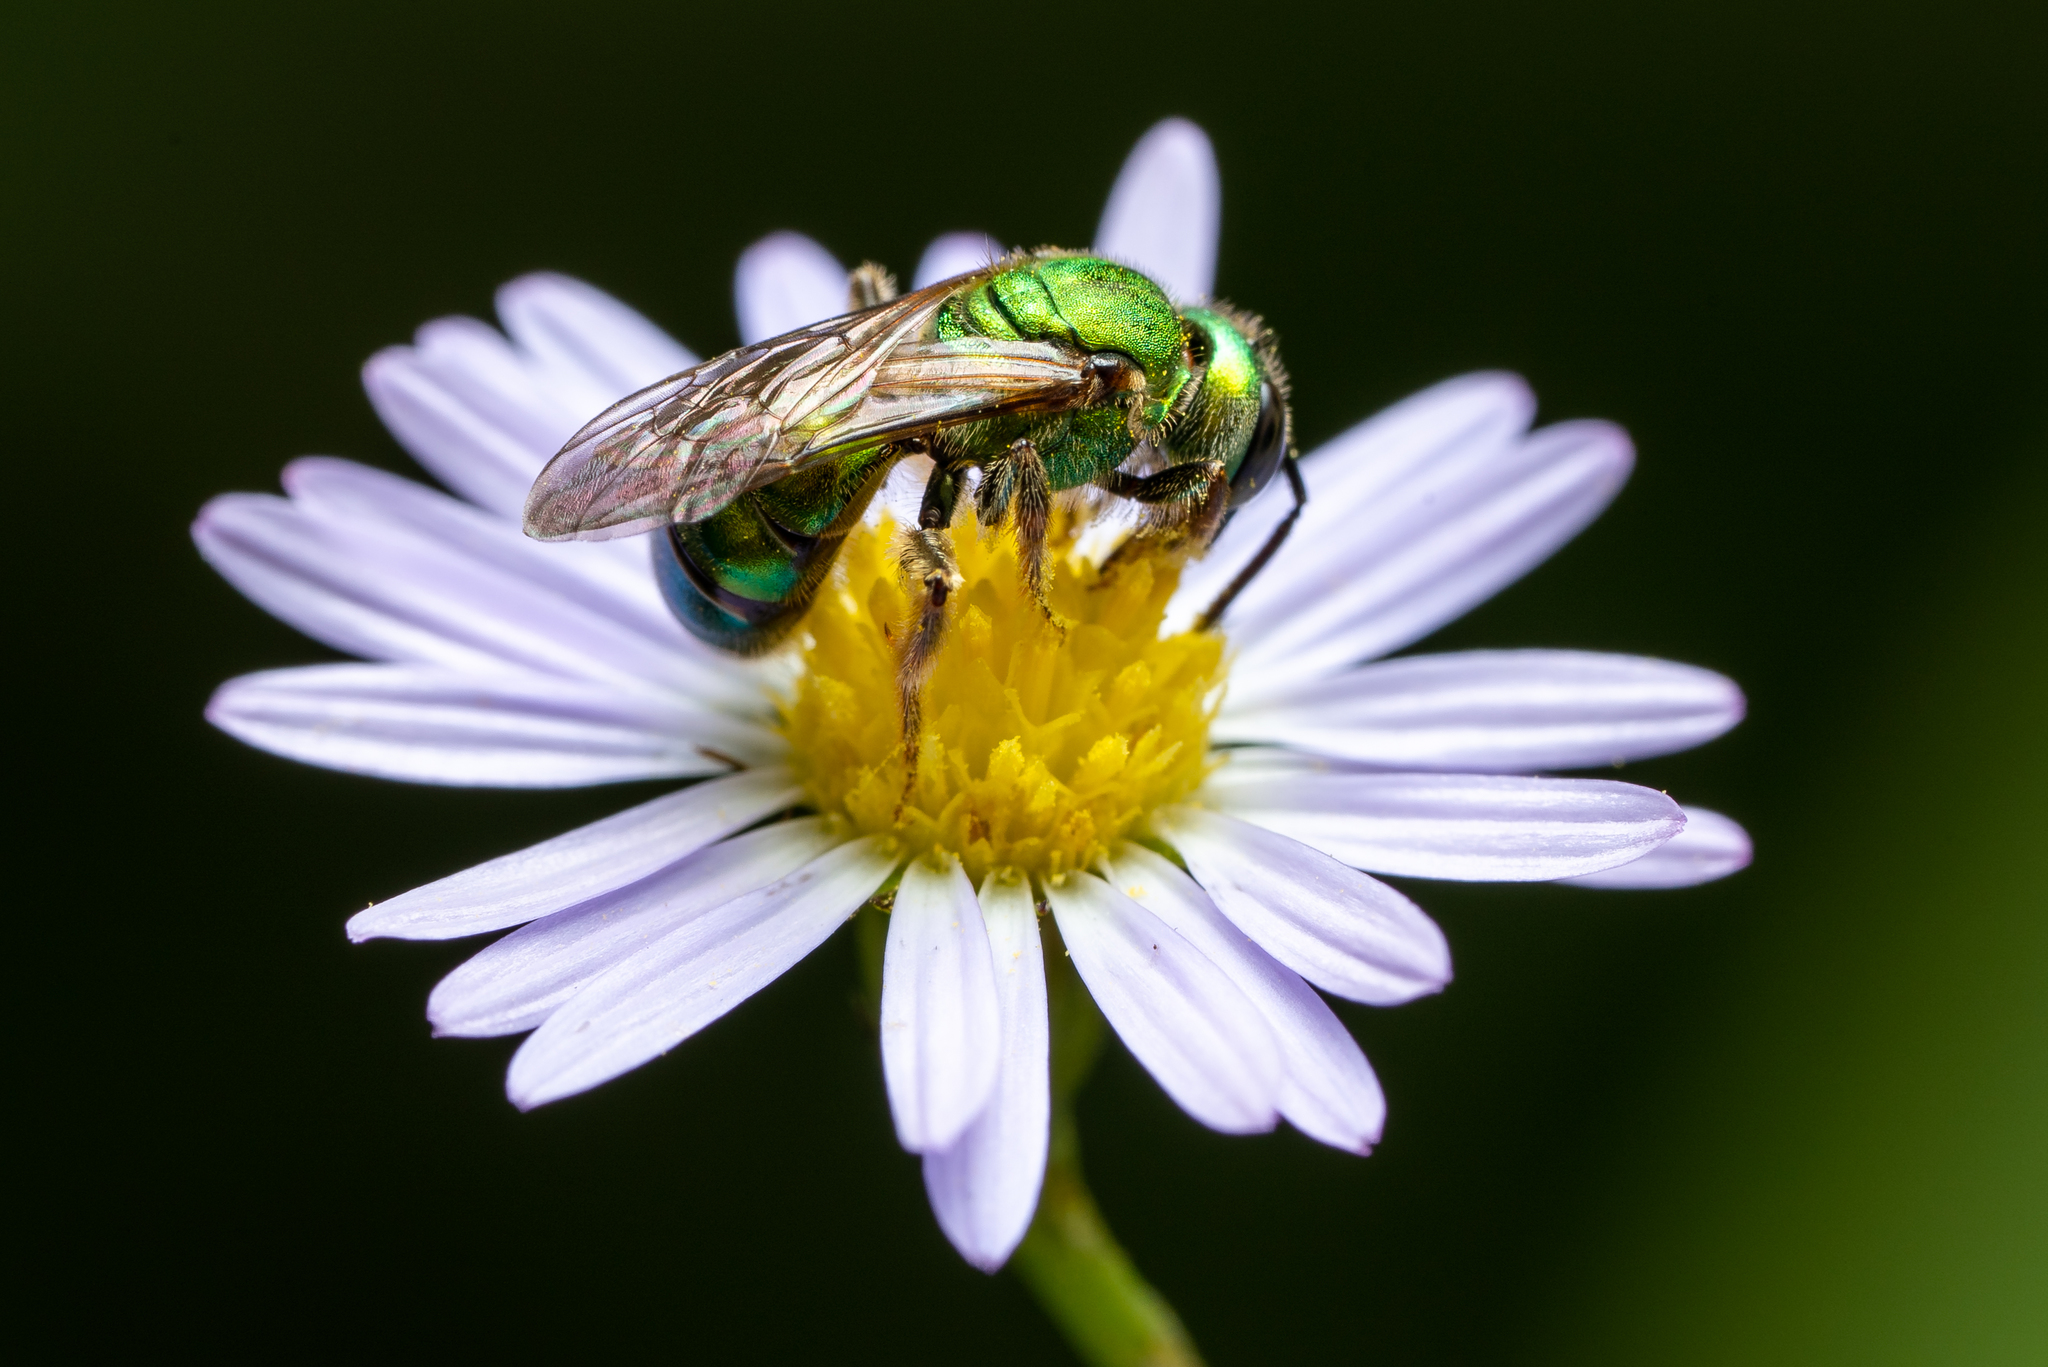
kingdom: Animalia
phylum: Arthropoda
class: Insecta
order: Hymenoptera
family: Halictidae
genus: Augochlora
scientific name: Augochlora pura
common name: Pure green sweat bee
